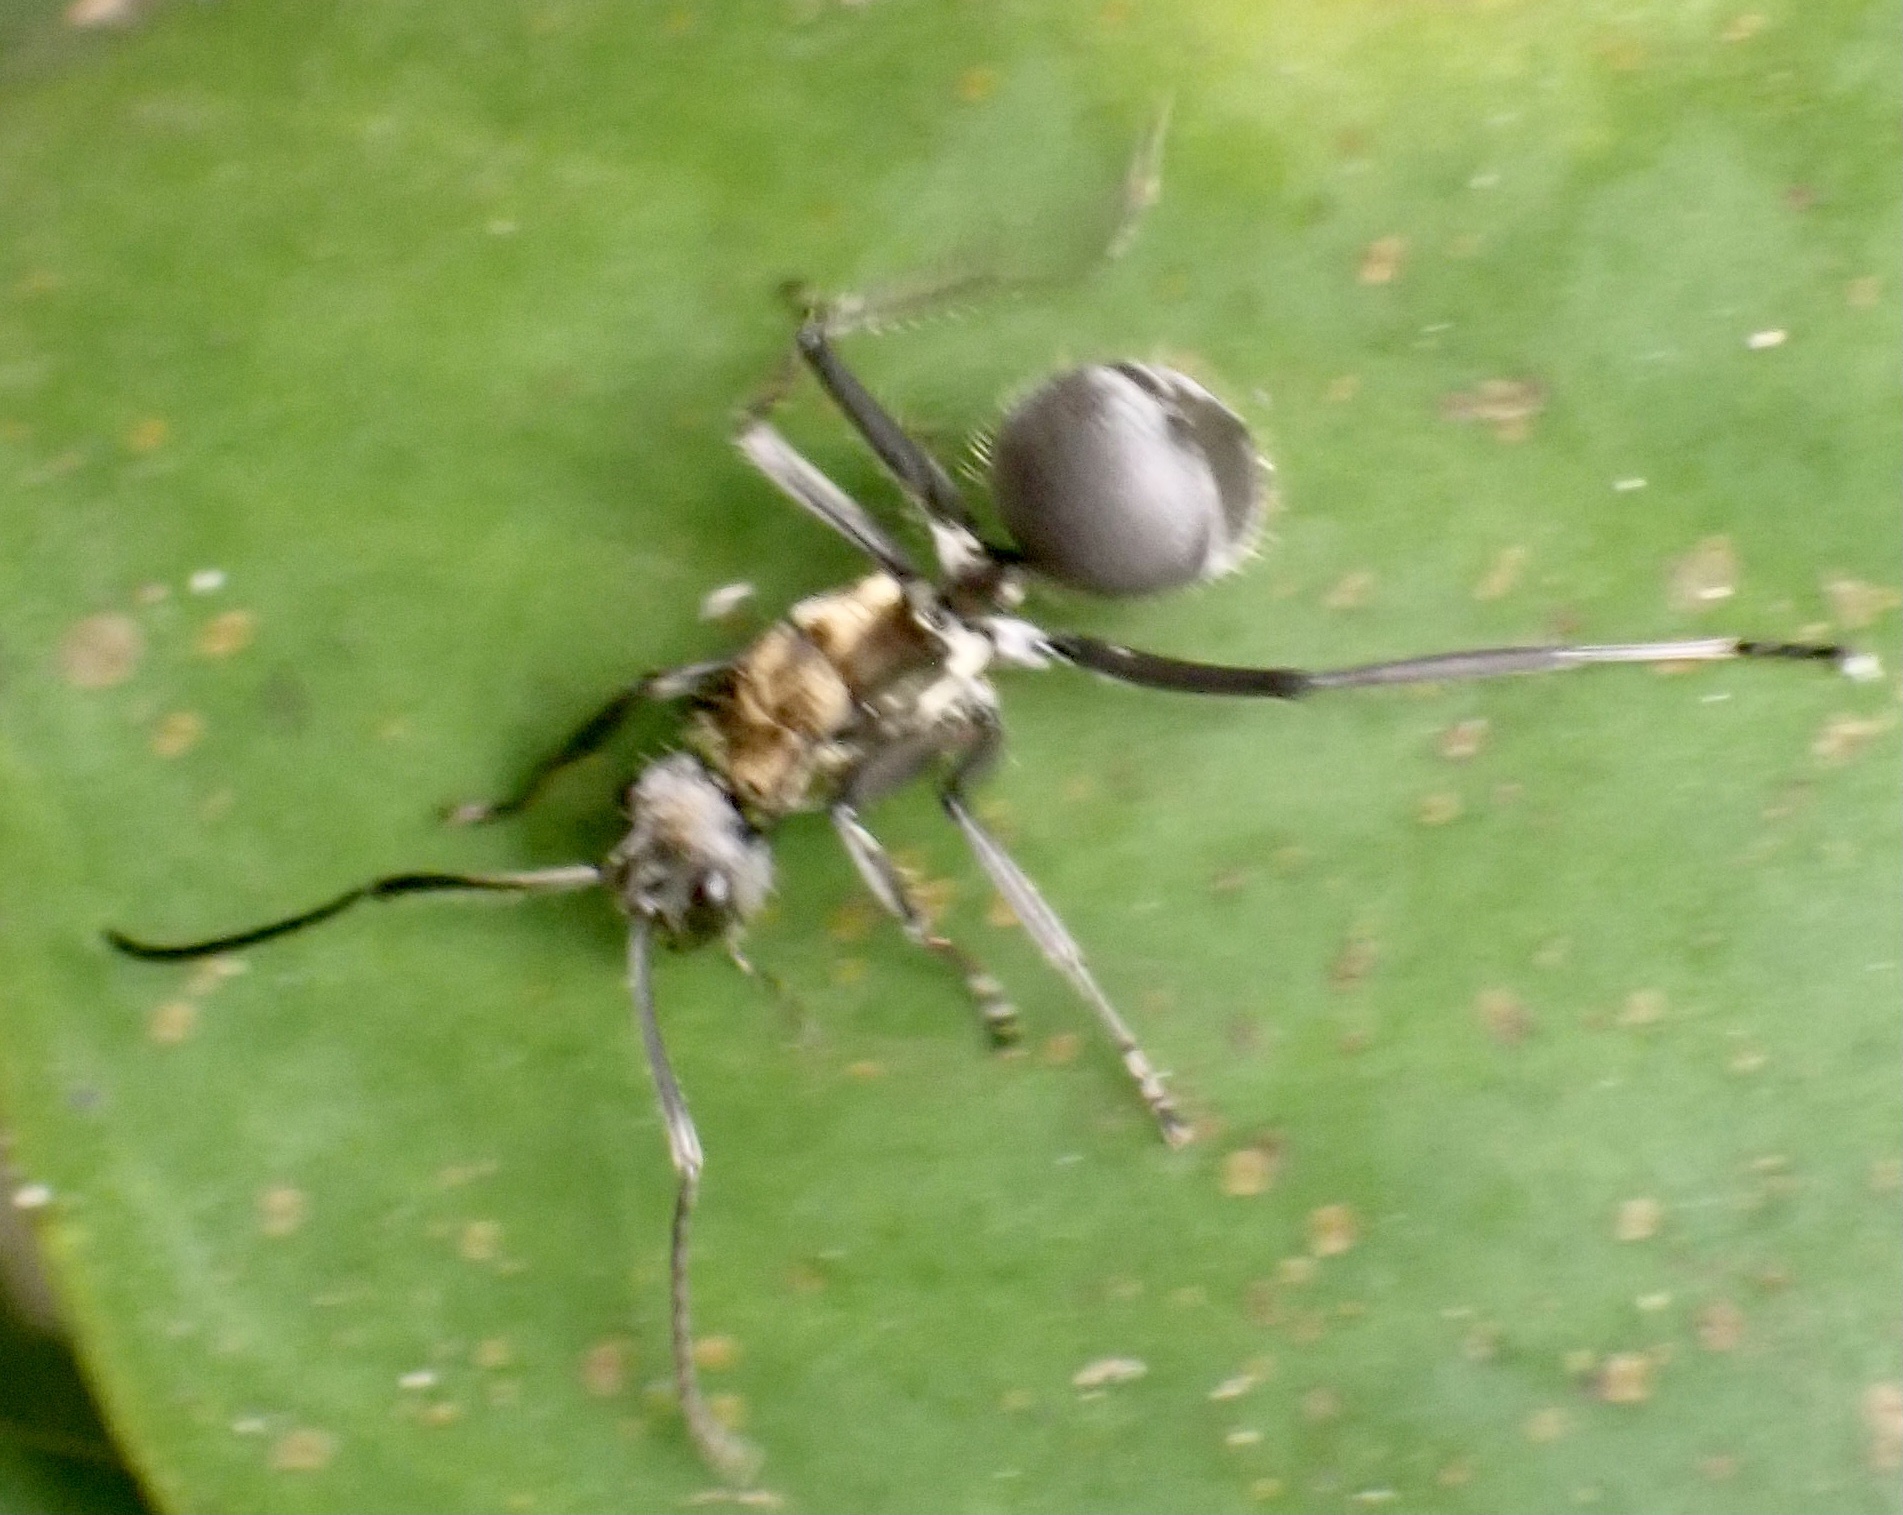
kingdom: Animalia
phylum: Arthropoda
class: Insecta
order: Hymenoptera
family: Formicidae
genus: Polyrhachis
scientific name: Polyrhachis militaris
